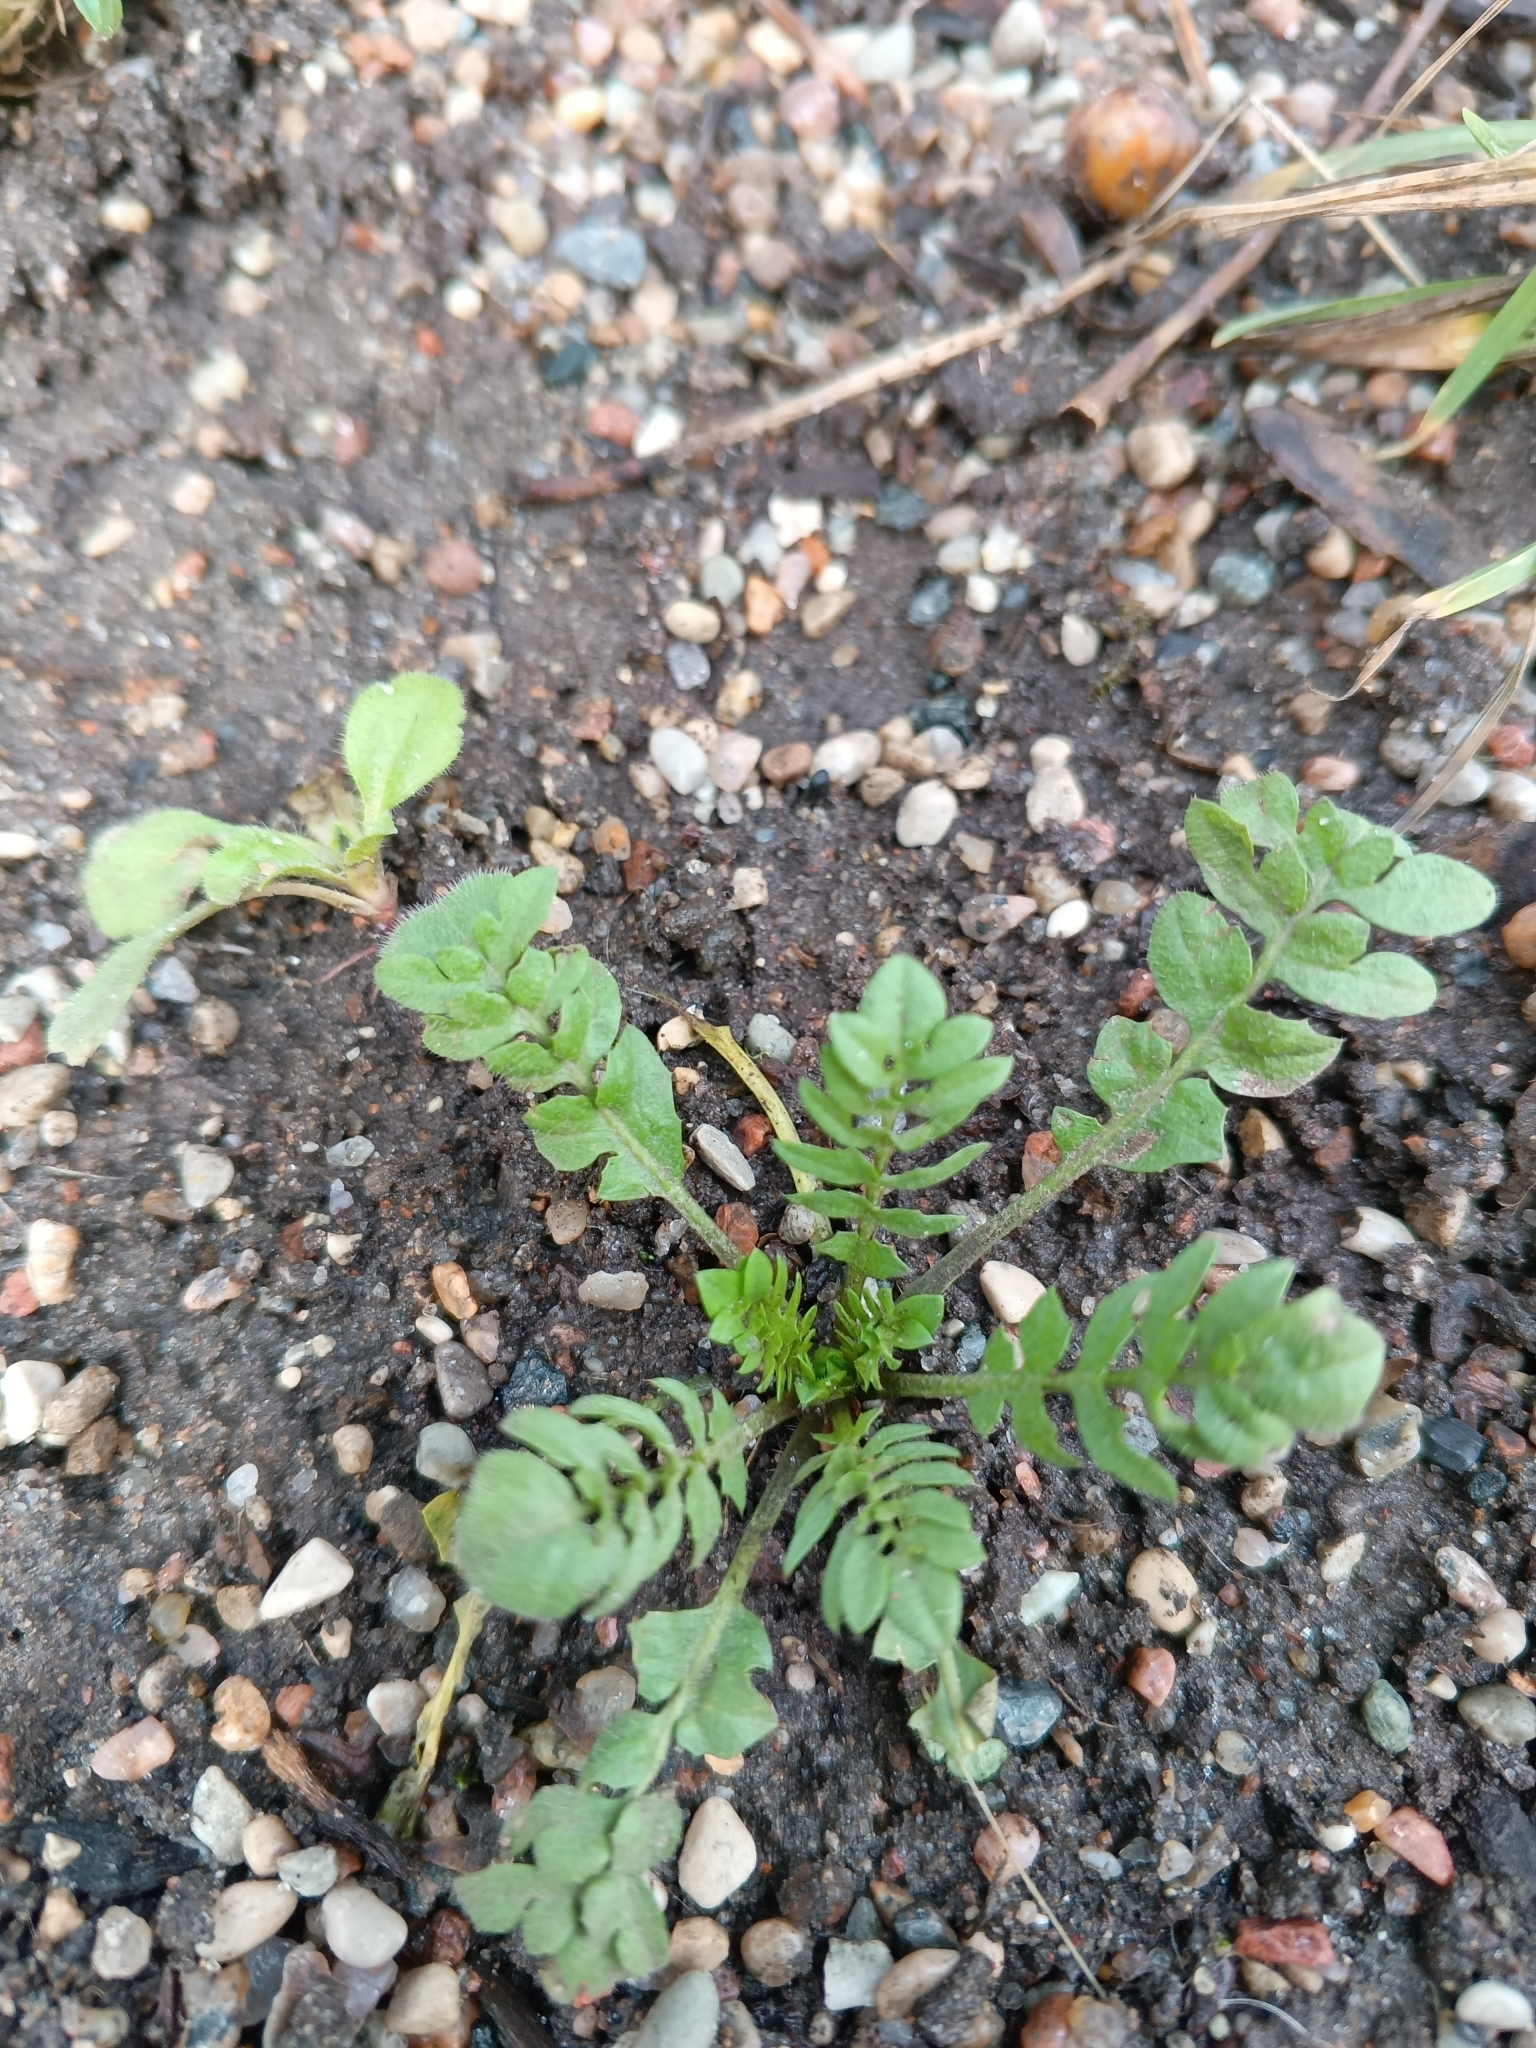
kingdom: Plantae
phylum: Tracheophyta
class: Magnoliopsida
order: Brassicales
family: Brassicaceae
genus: Capsella
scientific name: Capsella bursa-pastoris
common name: Shepherd's purse
